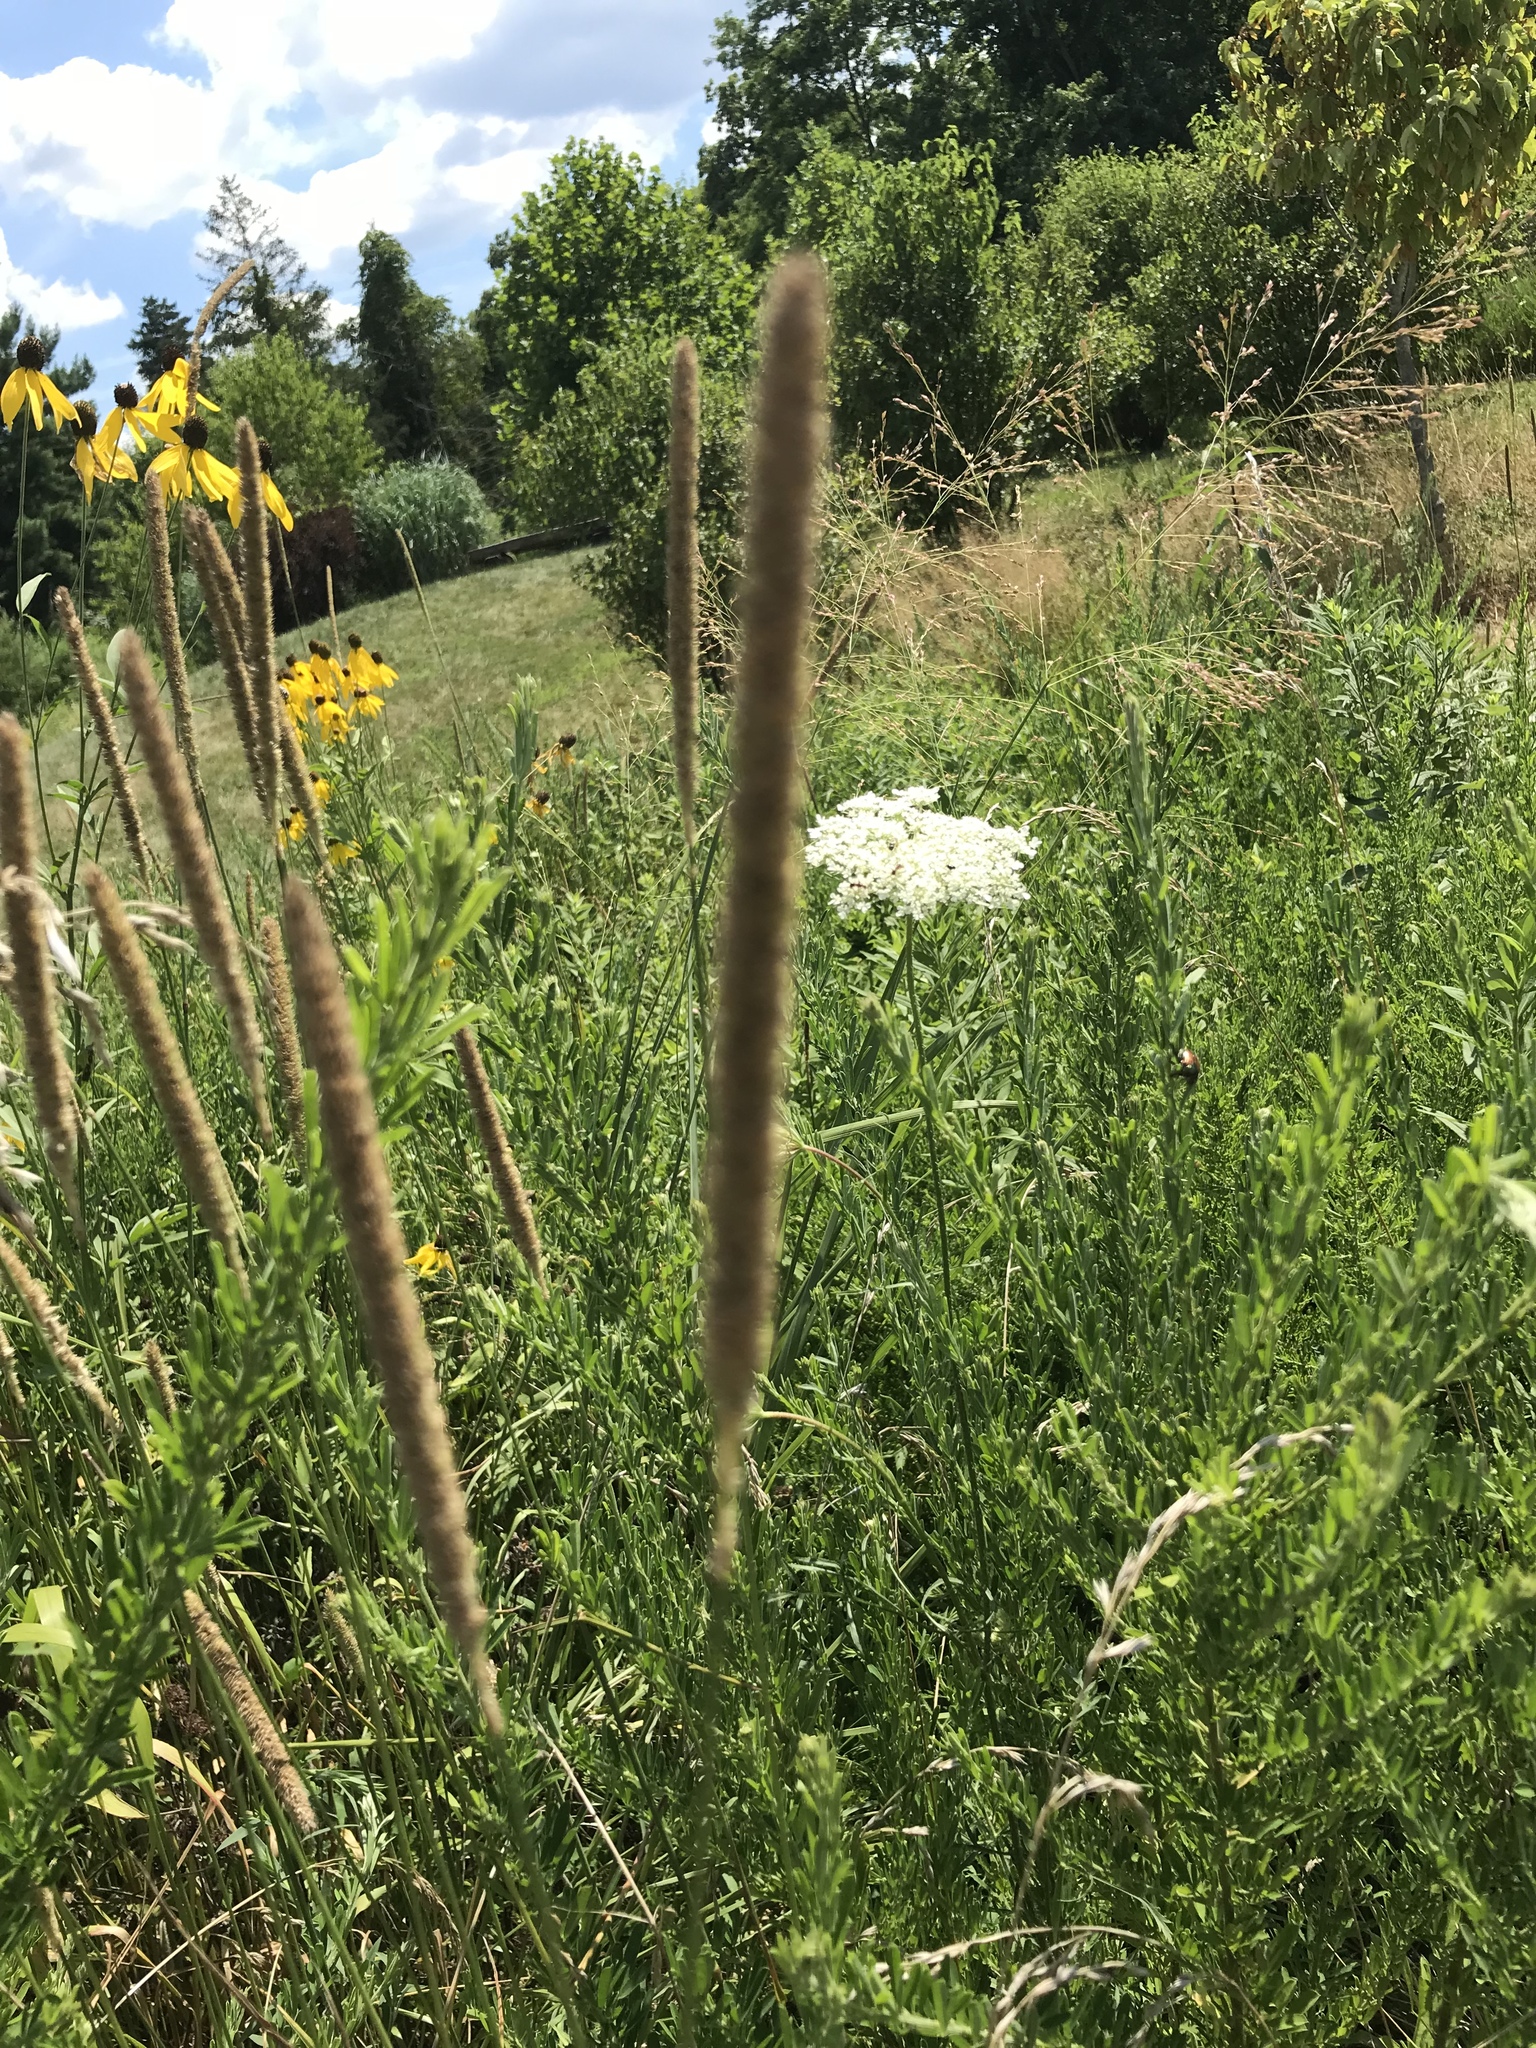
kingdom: Plantae
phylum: Tracheophyta
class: Liliopsida
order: Poales
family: Poaceae
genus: Phleum
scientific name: Phleum pratense
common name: Timothy grass
